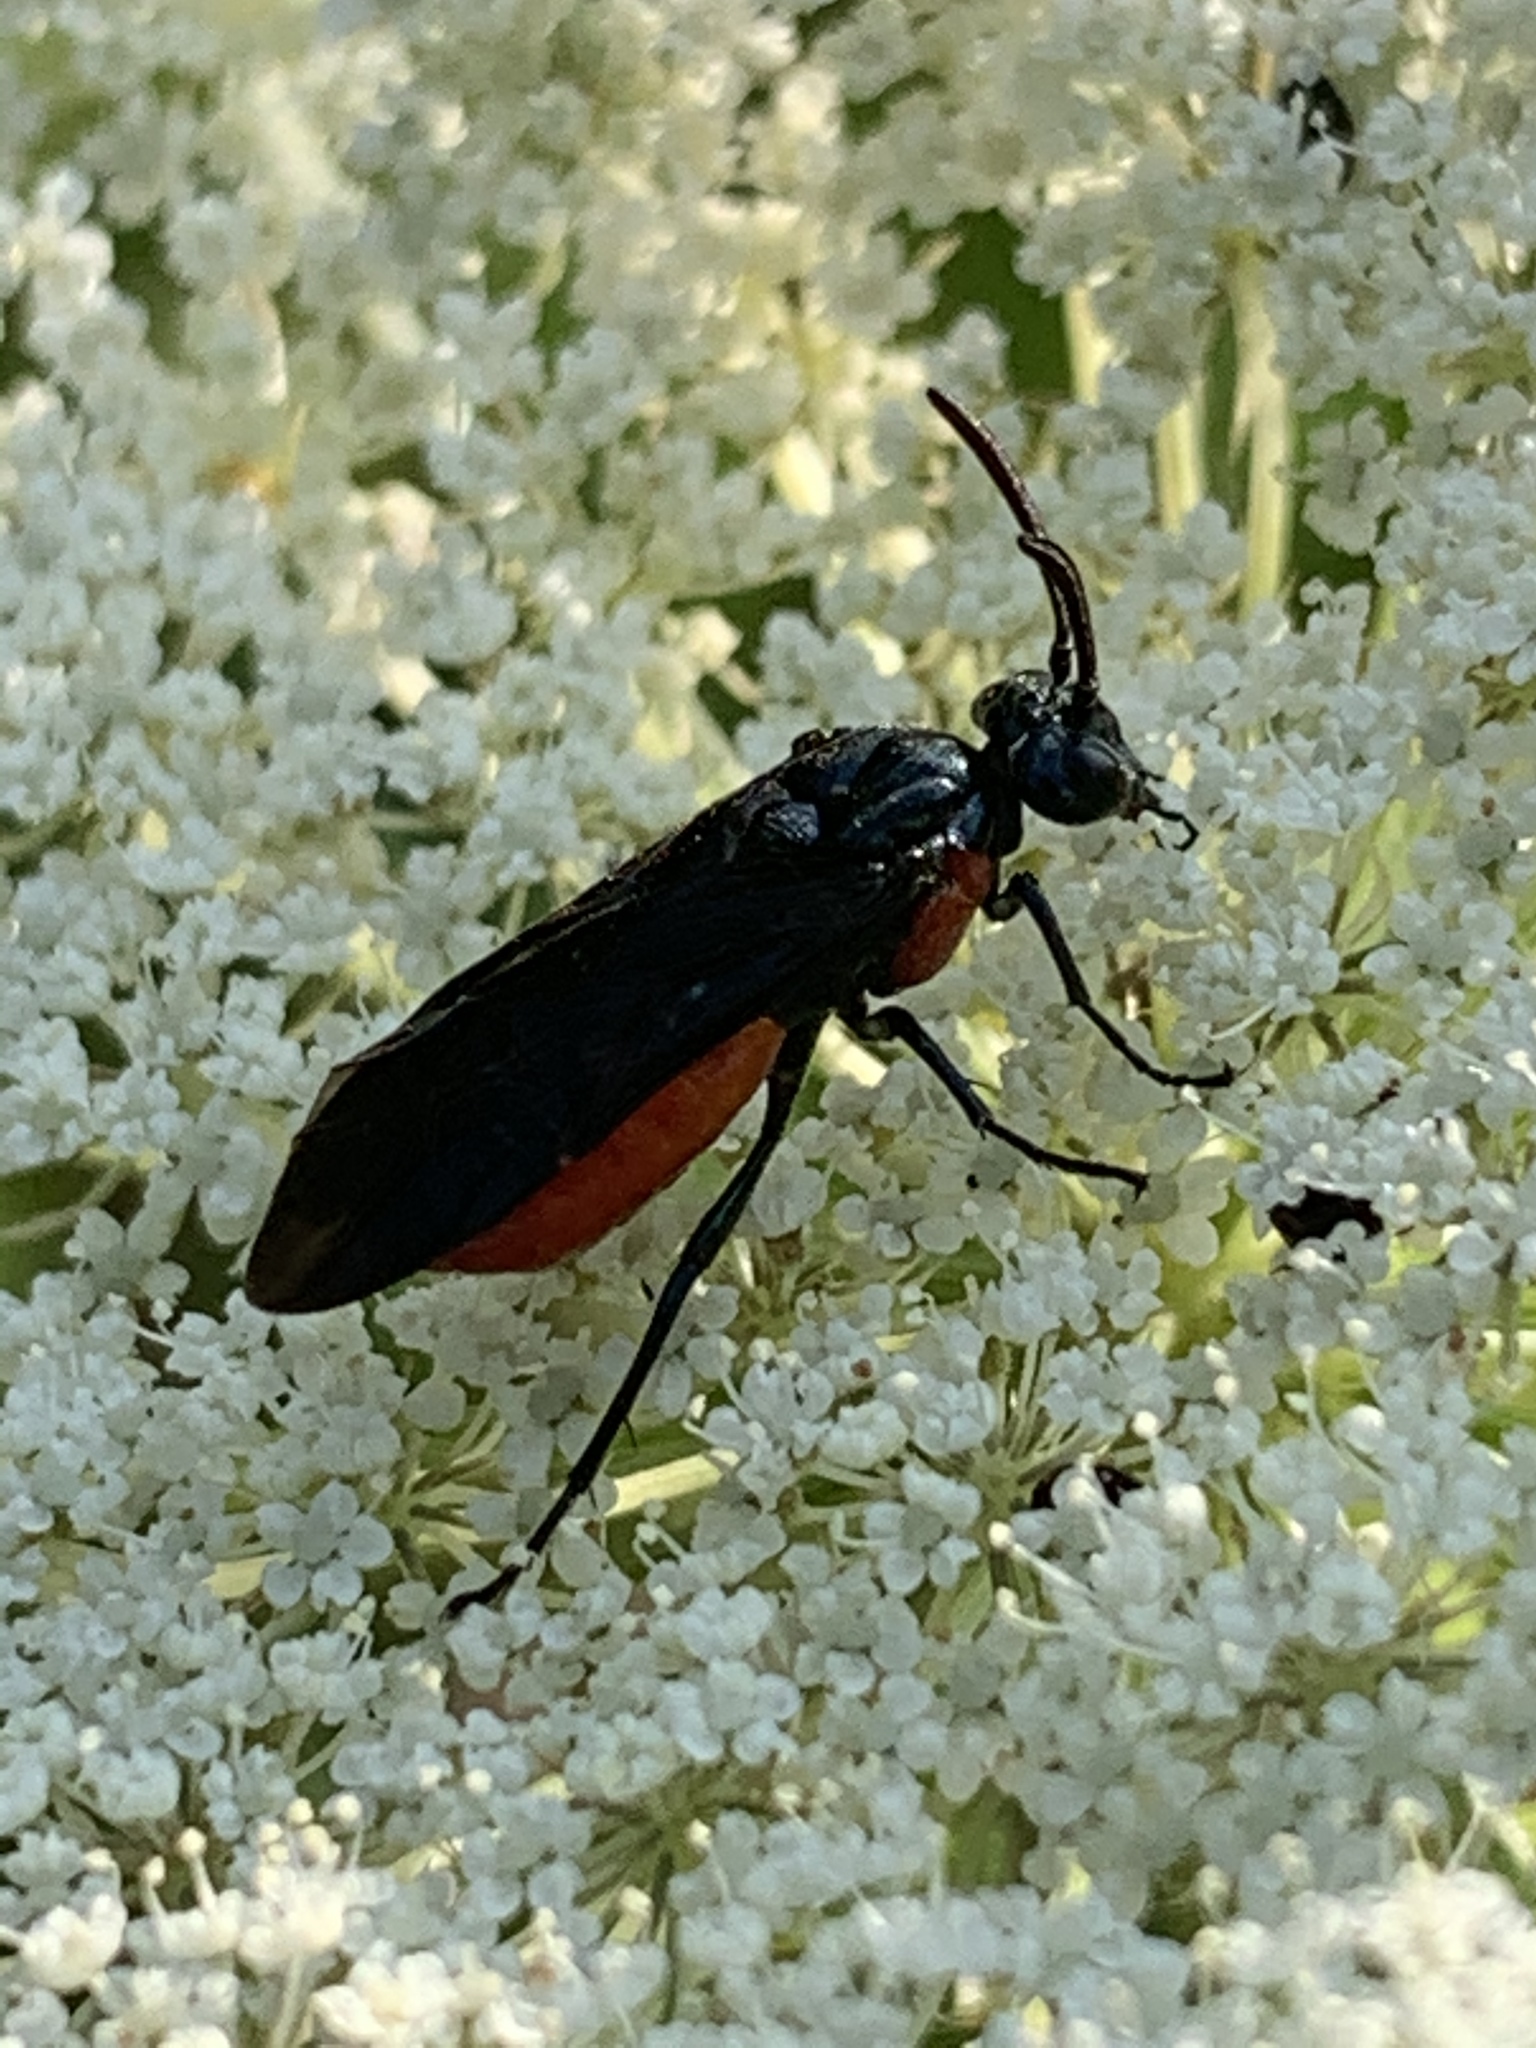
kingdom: Animalia
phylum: Arthropoda
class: Insecta
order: Hymenoptera
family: Argidae
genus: Arge
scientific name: Arge humeralis
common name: Poison ivy sawfly
